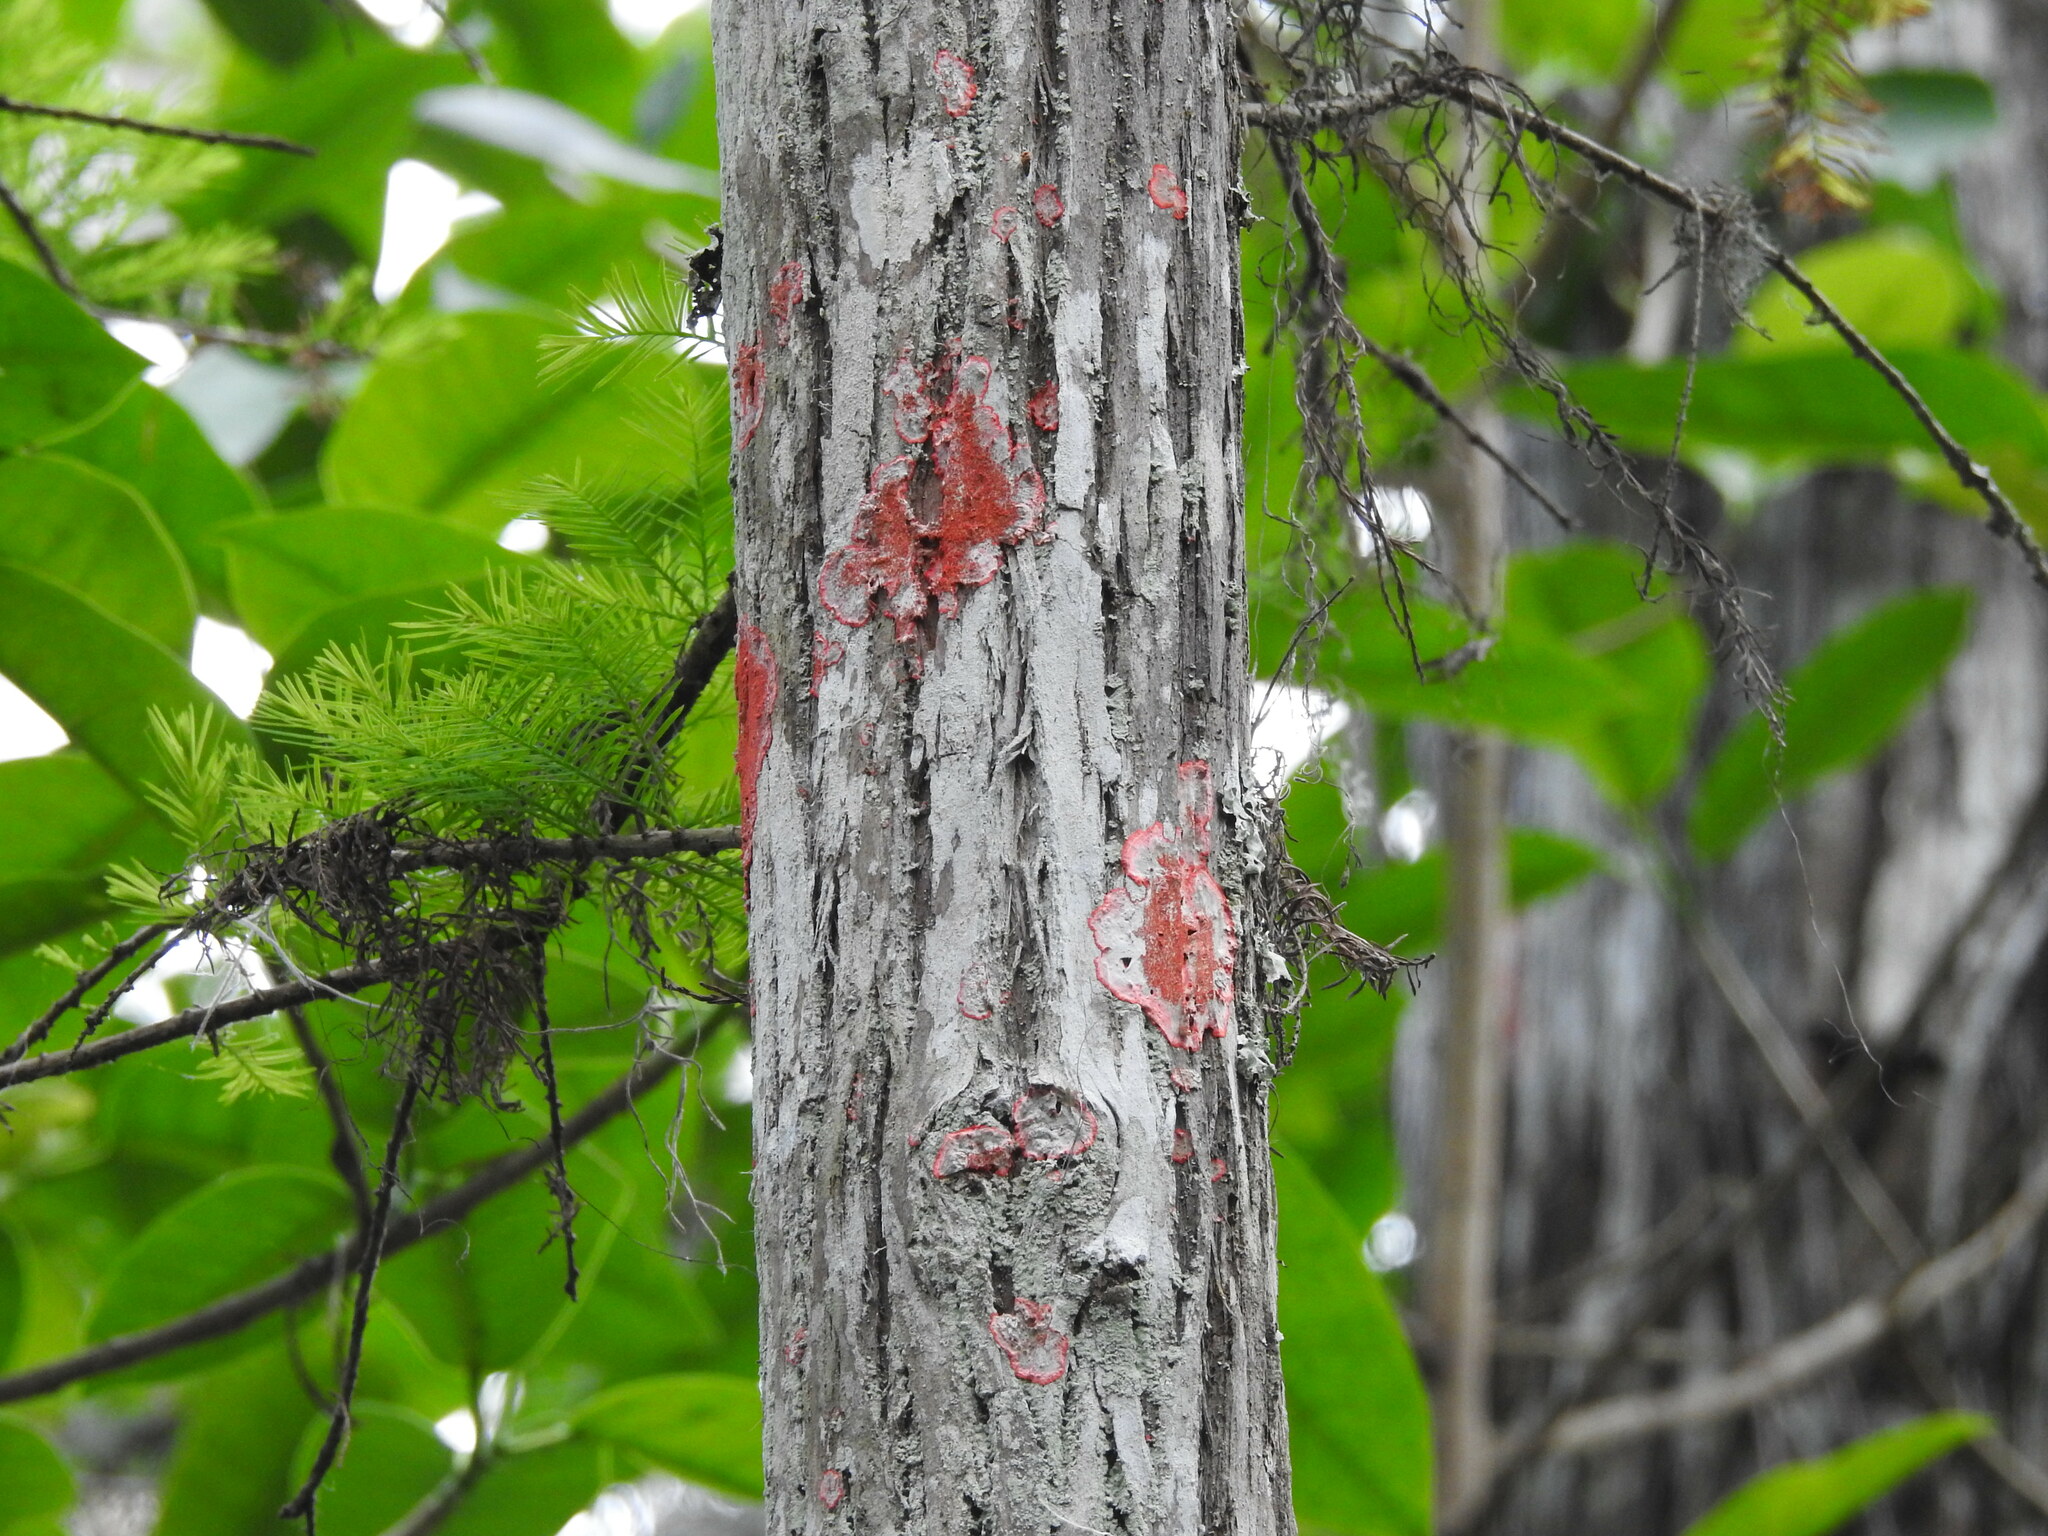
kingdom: Fungi
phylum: Ascomycota
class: Arthoniomycetes
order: Arthoniales
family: Arthoniaceae
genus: Herpothallon
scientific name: Herpothallon rubrocinctum
